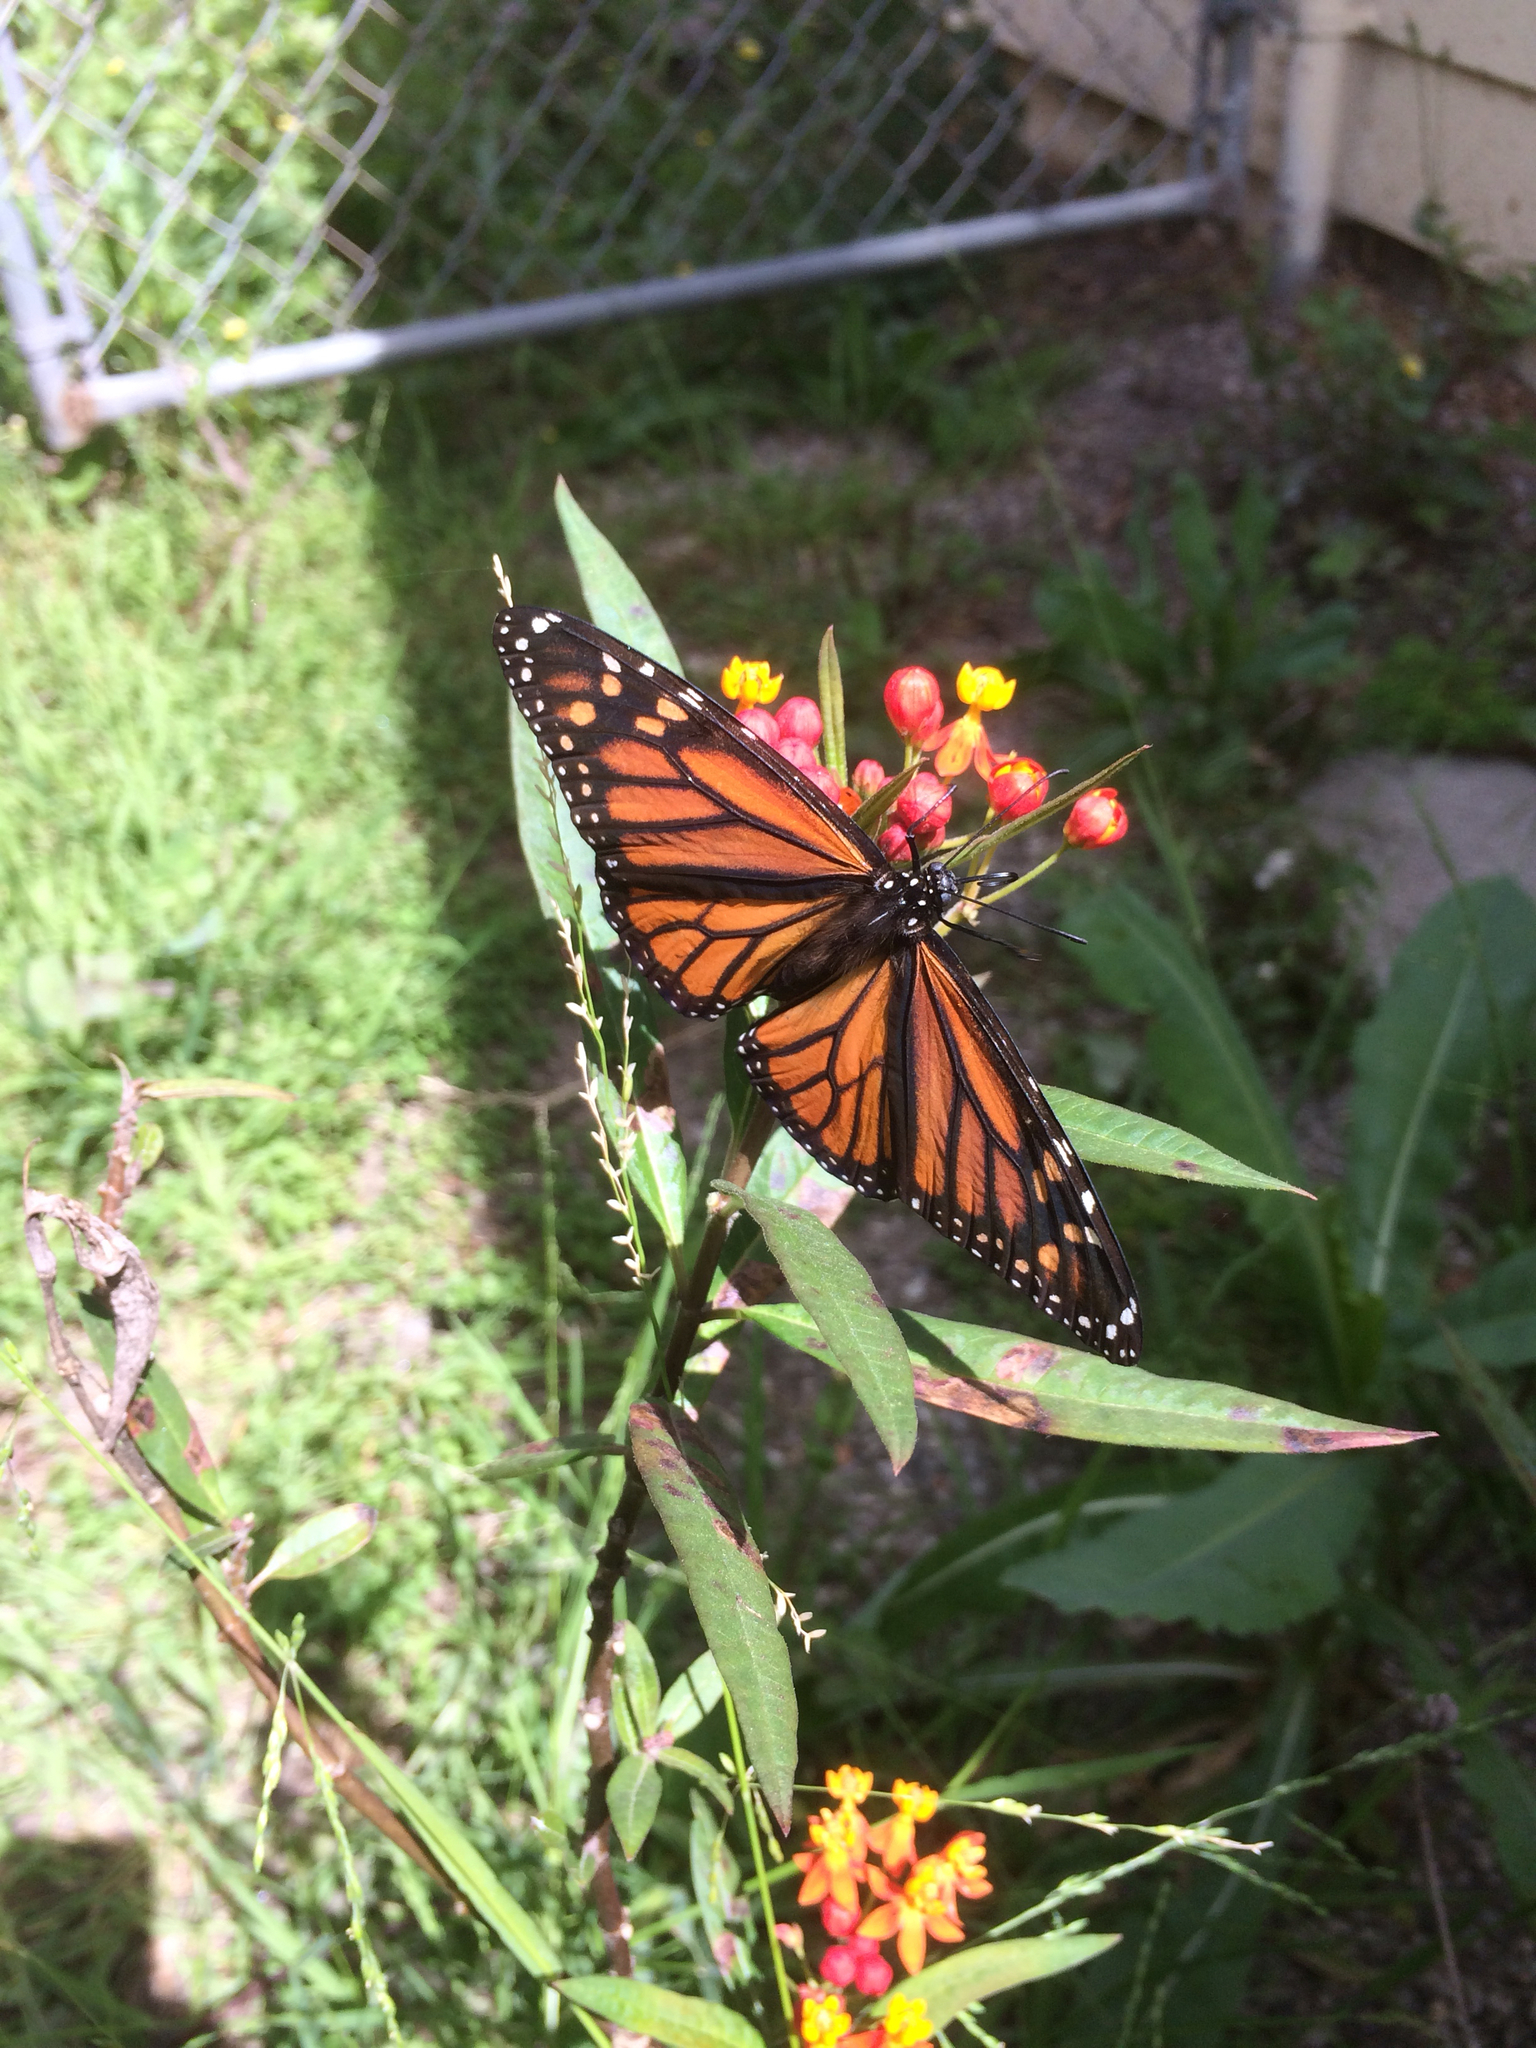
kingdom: Animalia
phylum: Arthropoda
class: Insecta
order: Lepidoptera
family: Nymphalidae
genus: Danaus
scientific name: Danaus plexippus
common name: Monarch
